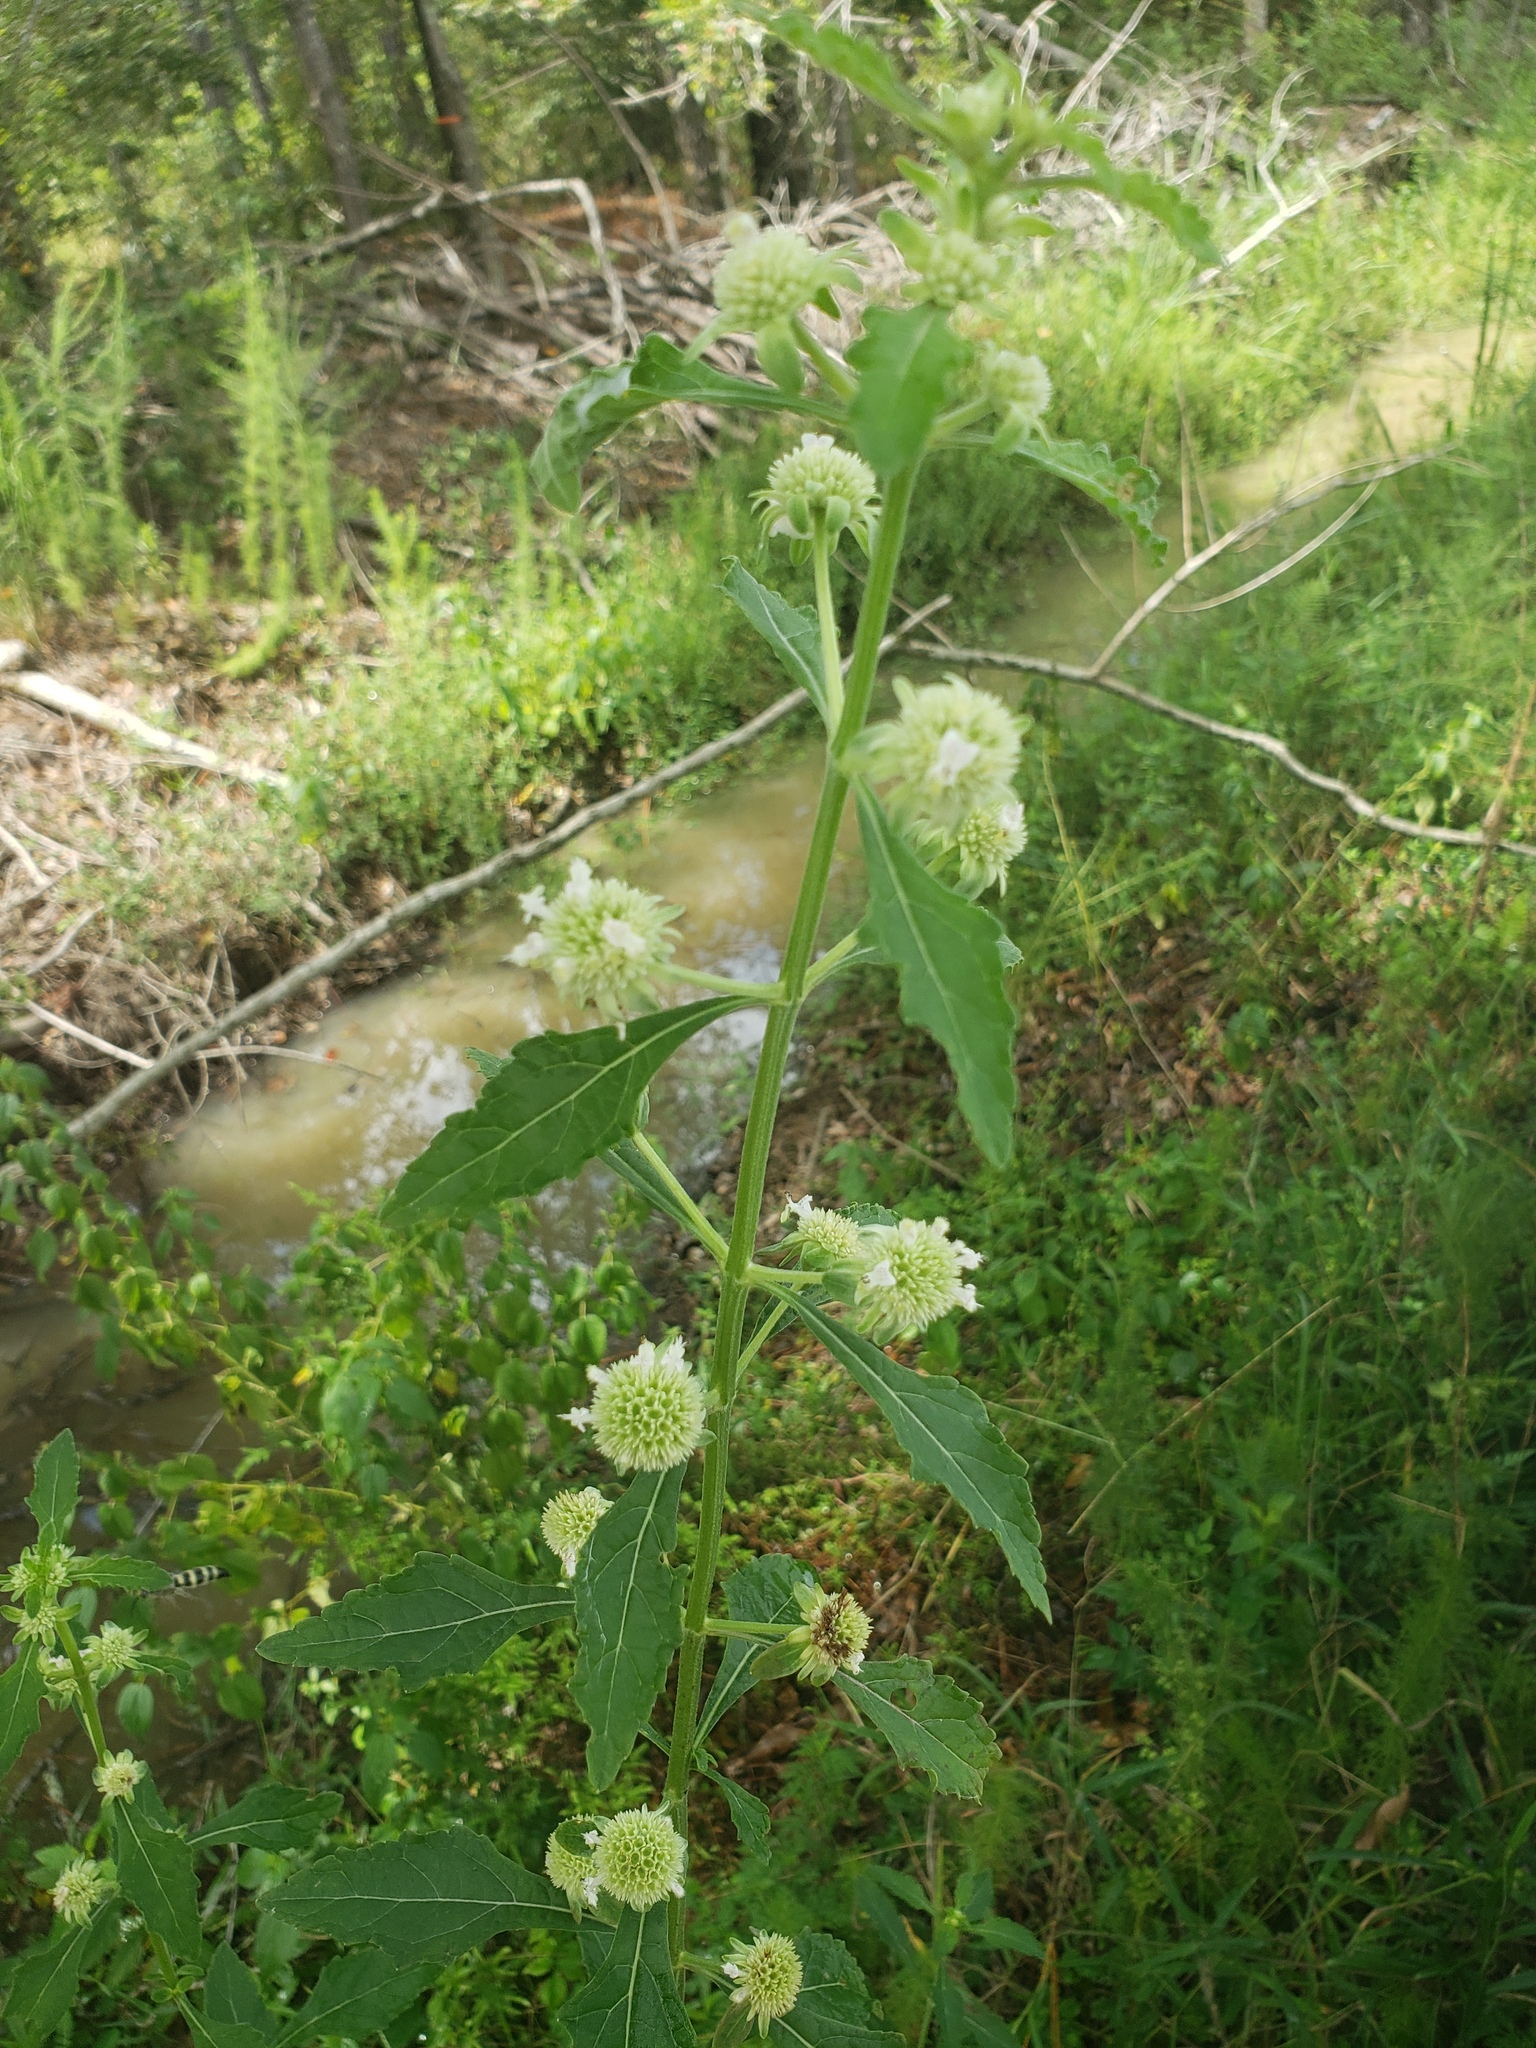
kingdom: Plantae
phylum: Tracheophyta
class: Magnoliopsida
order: Lamiales
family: Lamiaceae
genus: Hyptis
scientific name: Hyptis alata
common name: Cluster bush-mint
